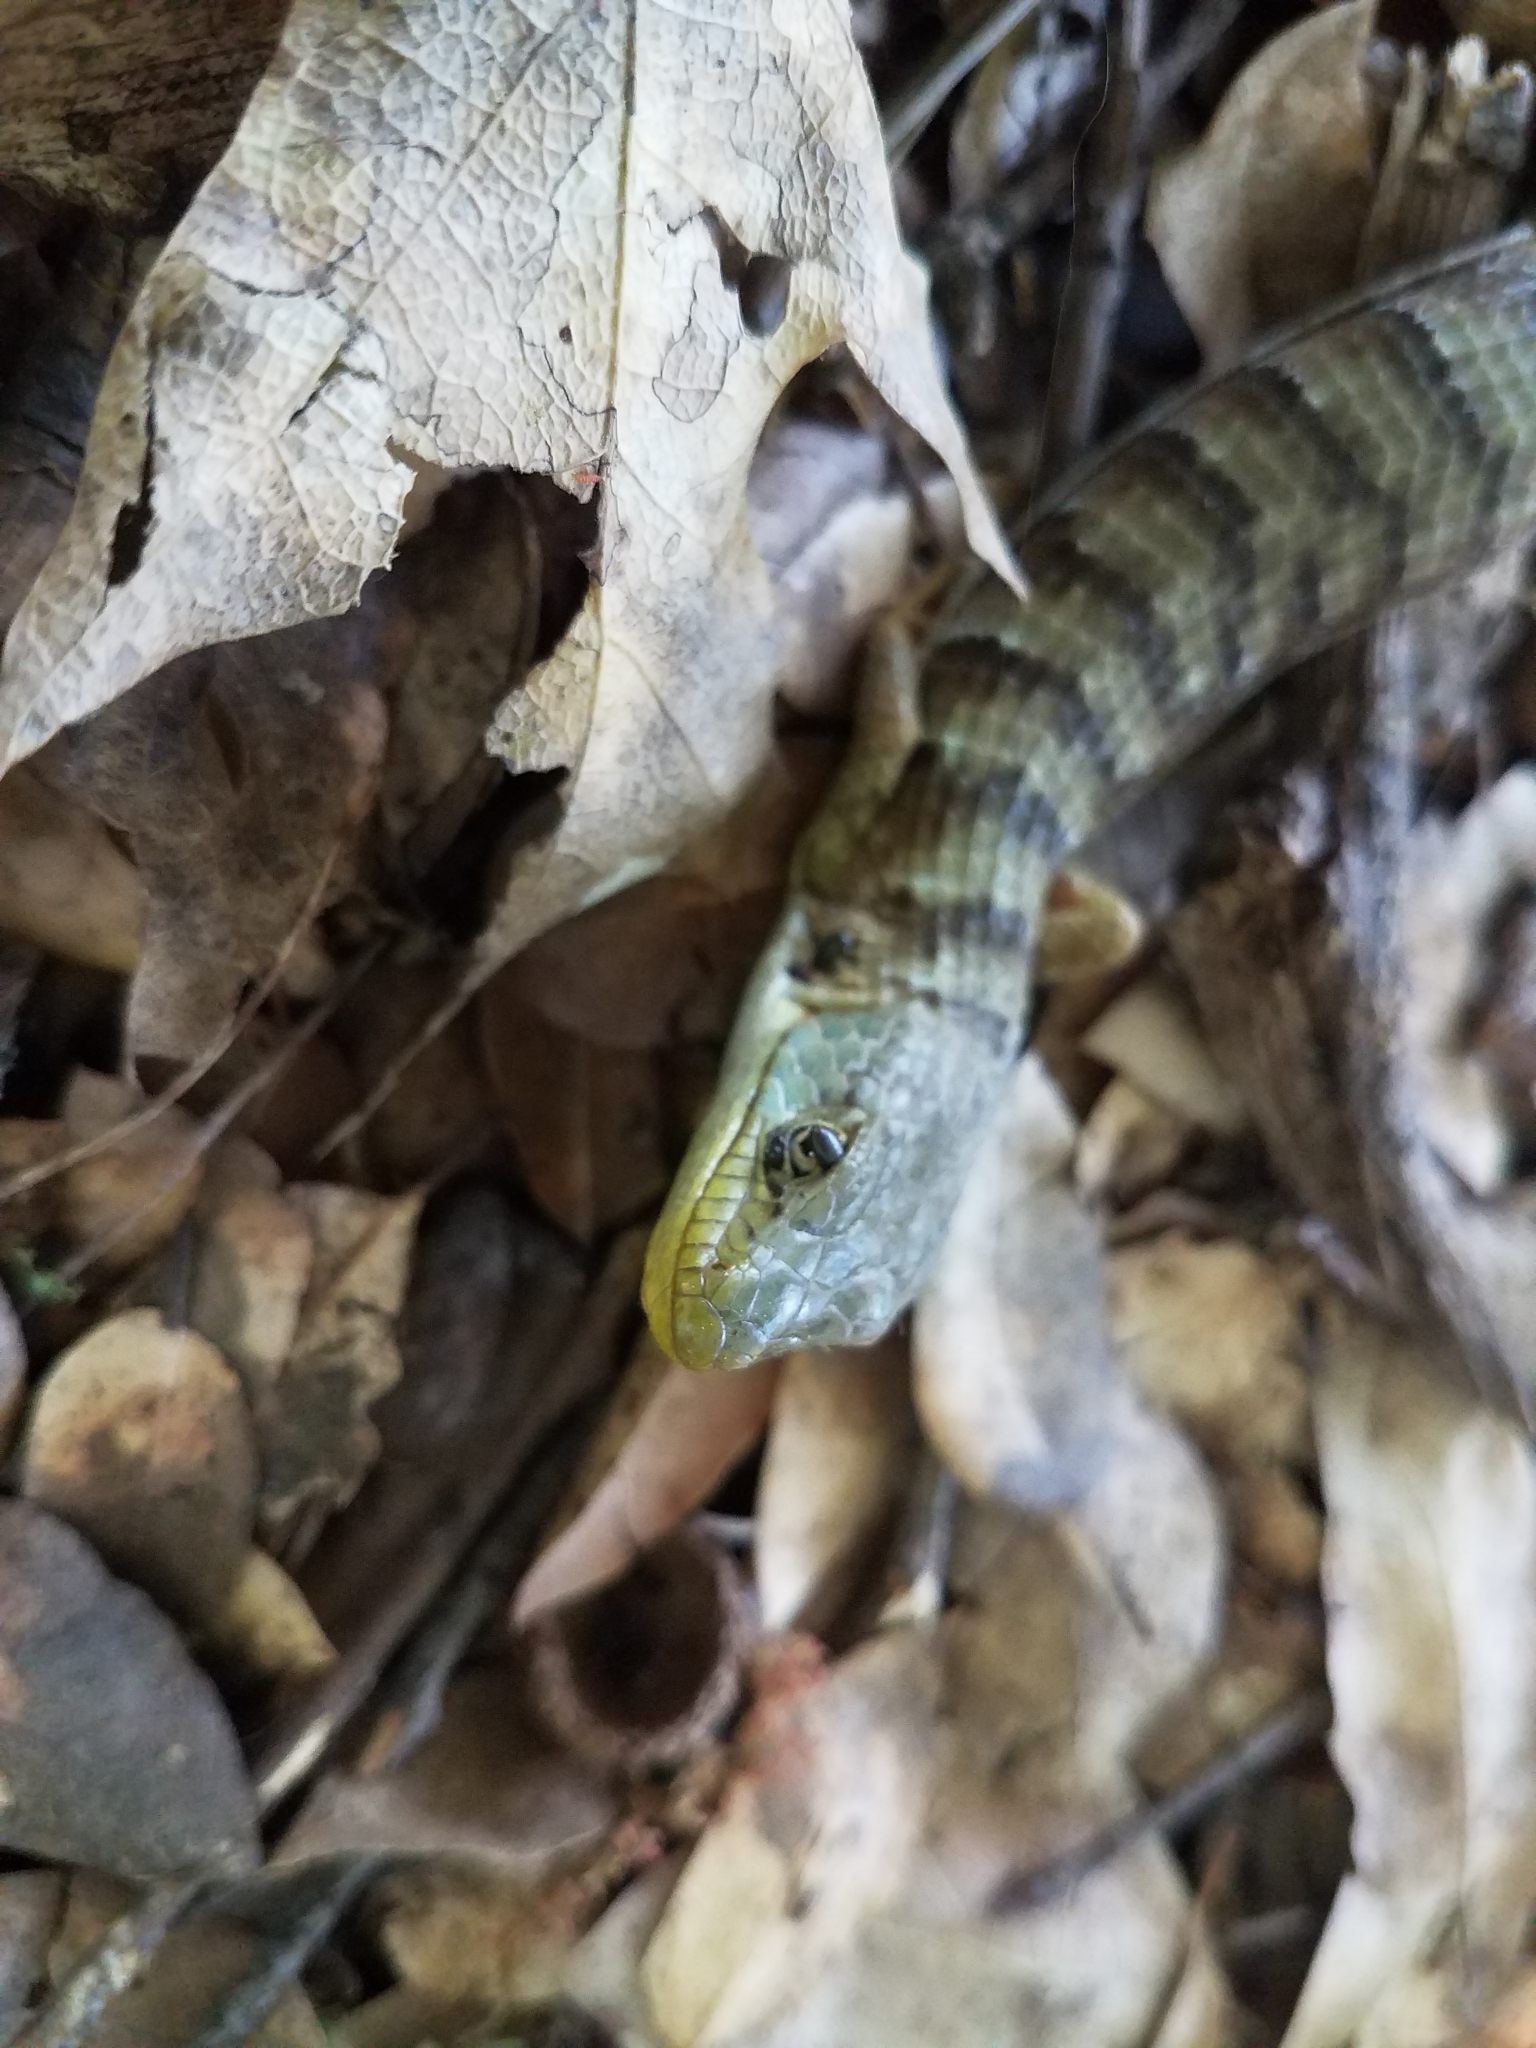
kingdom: Animalia
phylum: Chordata
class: Squamata
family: Anguidae
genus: Elgaria
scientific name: Elgaria multicarinata
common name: Southern alligator lizard
